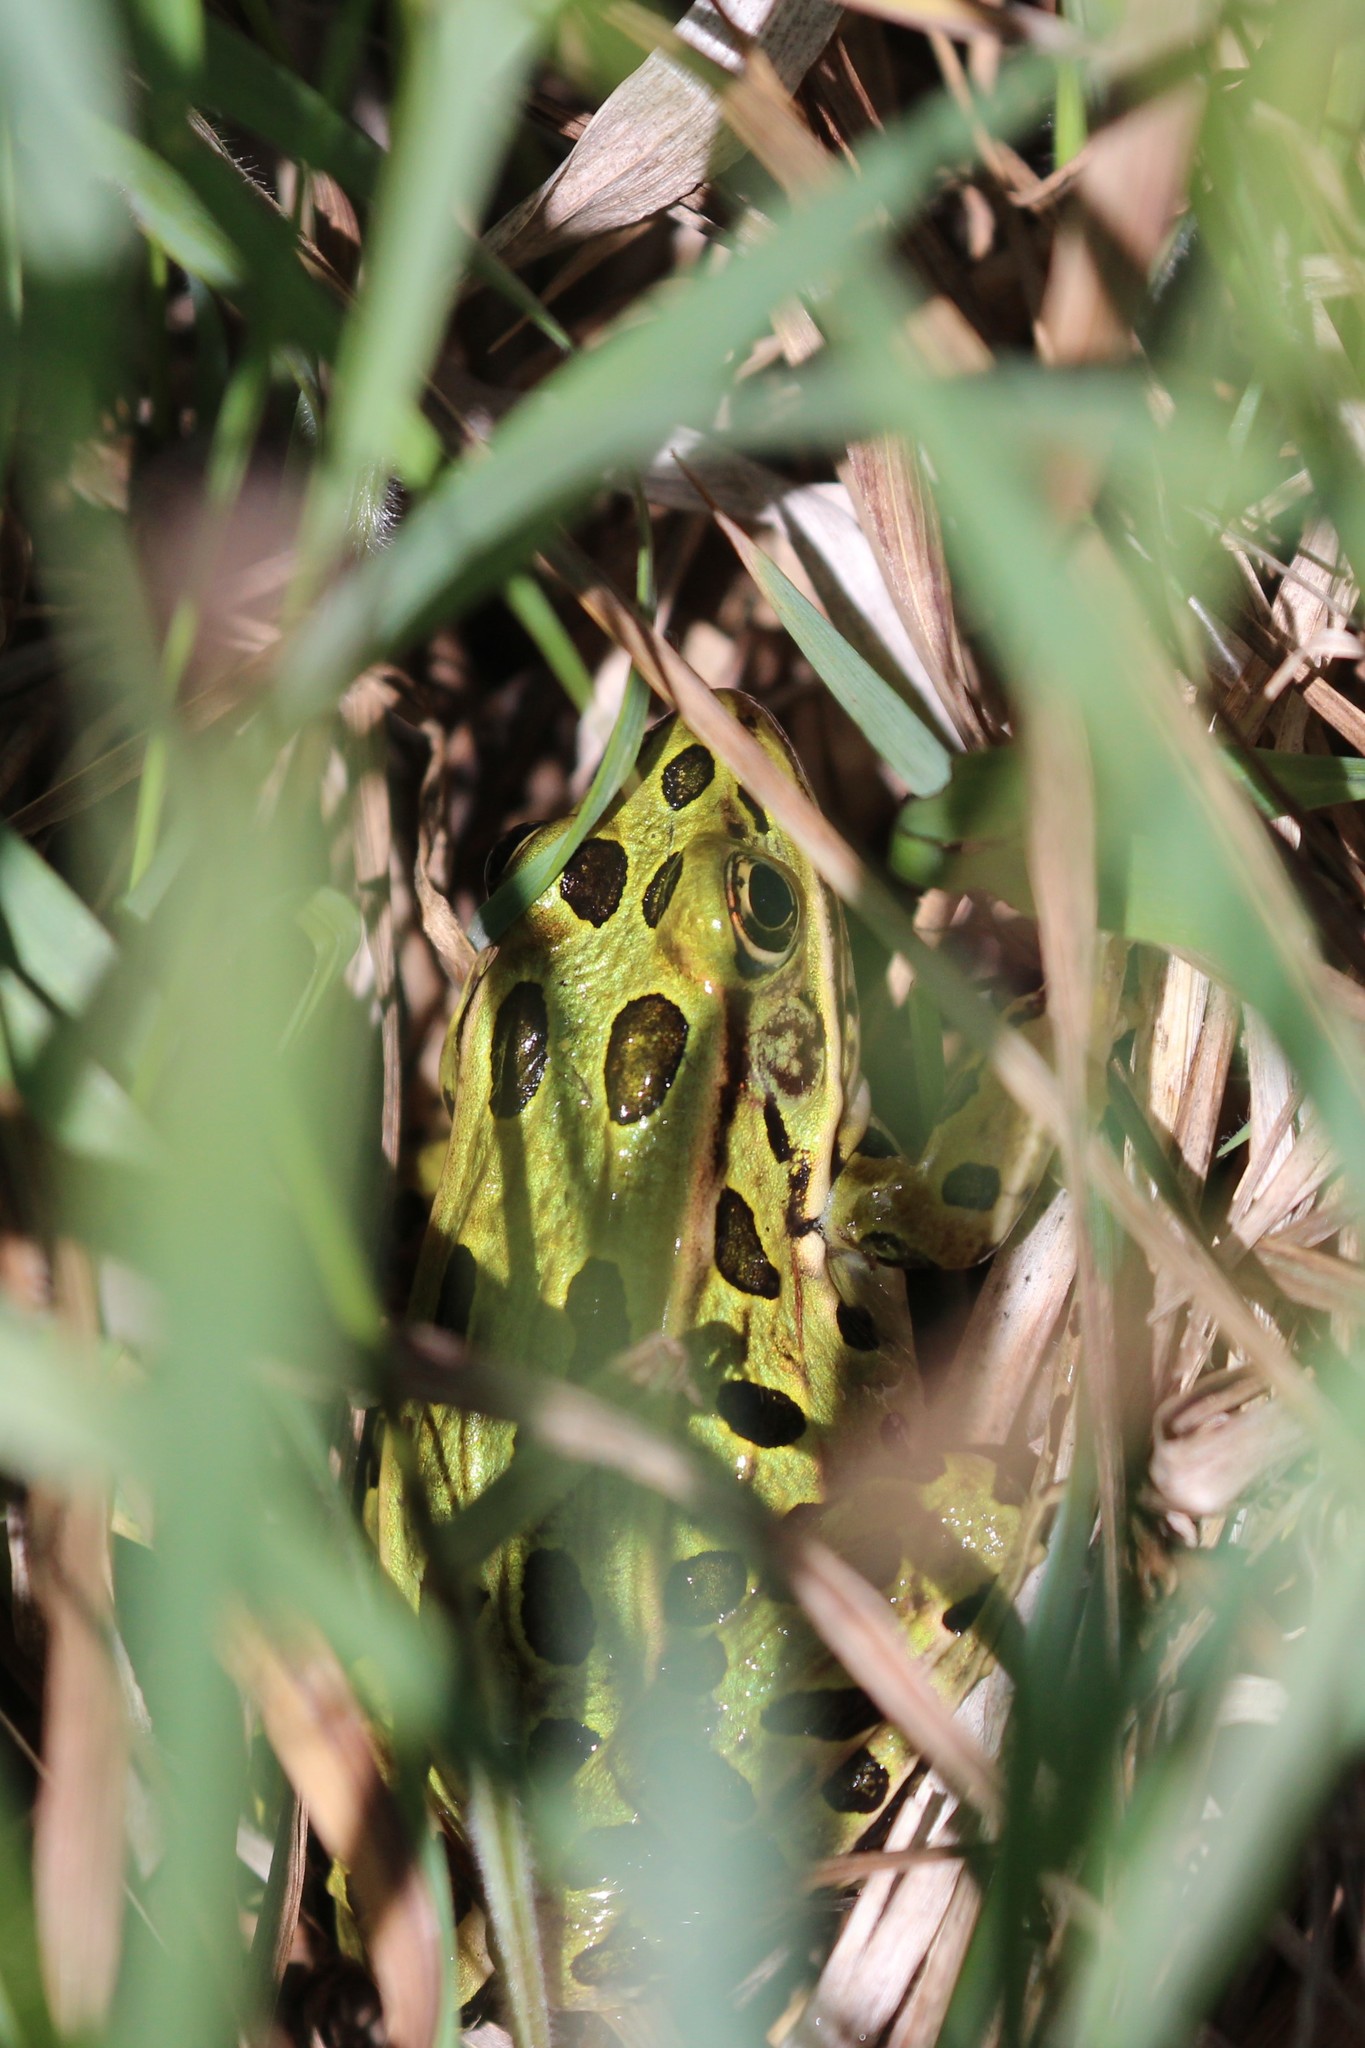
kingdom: Animalia
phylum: Chordata
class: Amphibia
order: Anura
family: Ranidae
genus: Lithobates
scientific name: Lithobates pipiens
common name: Northern leopard frog
